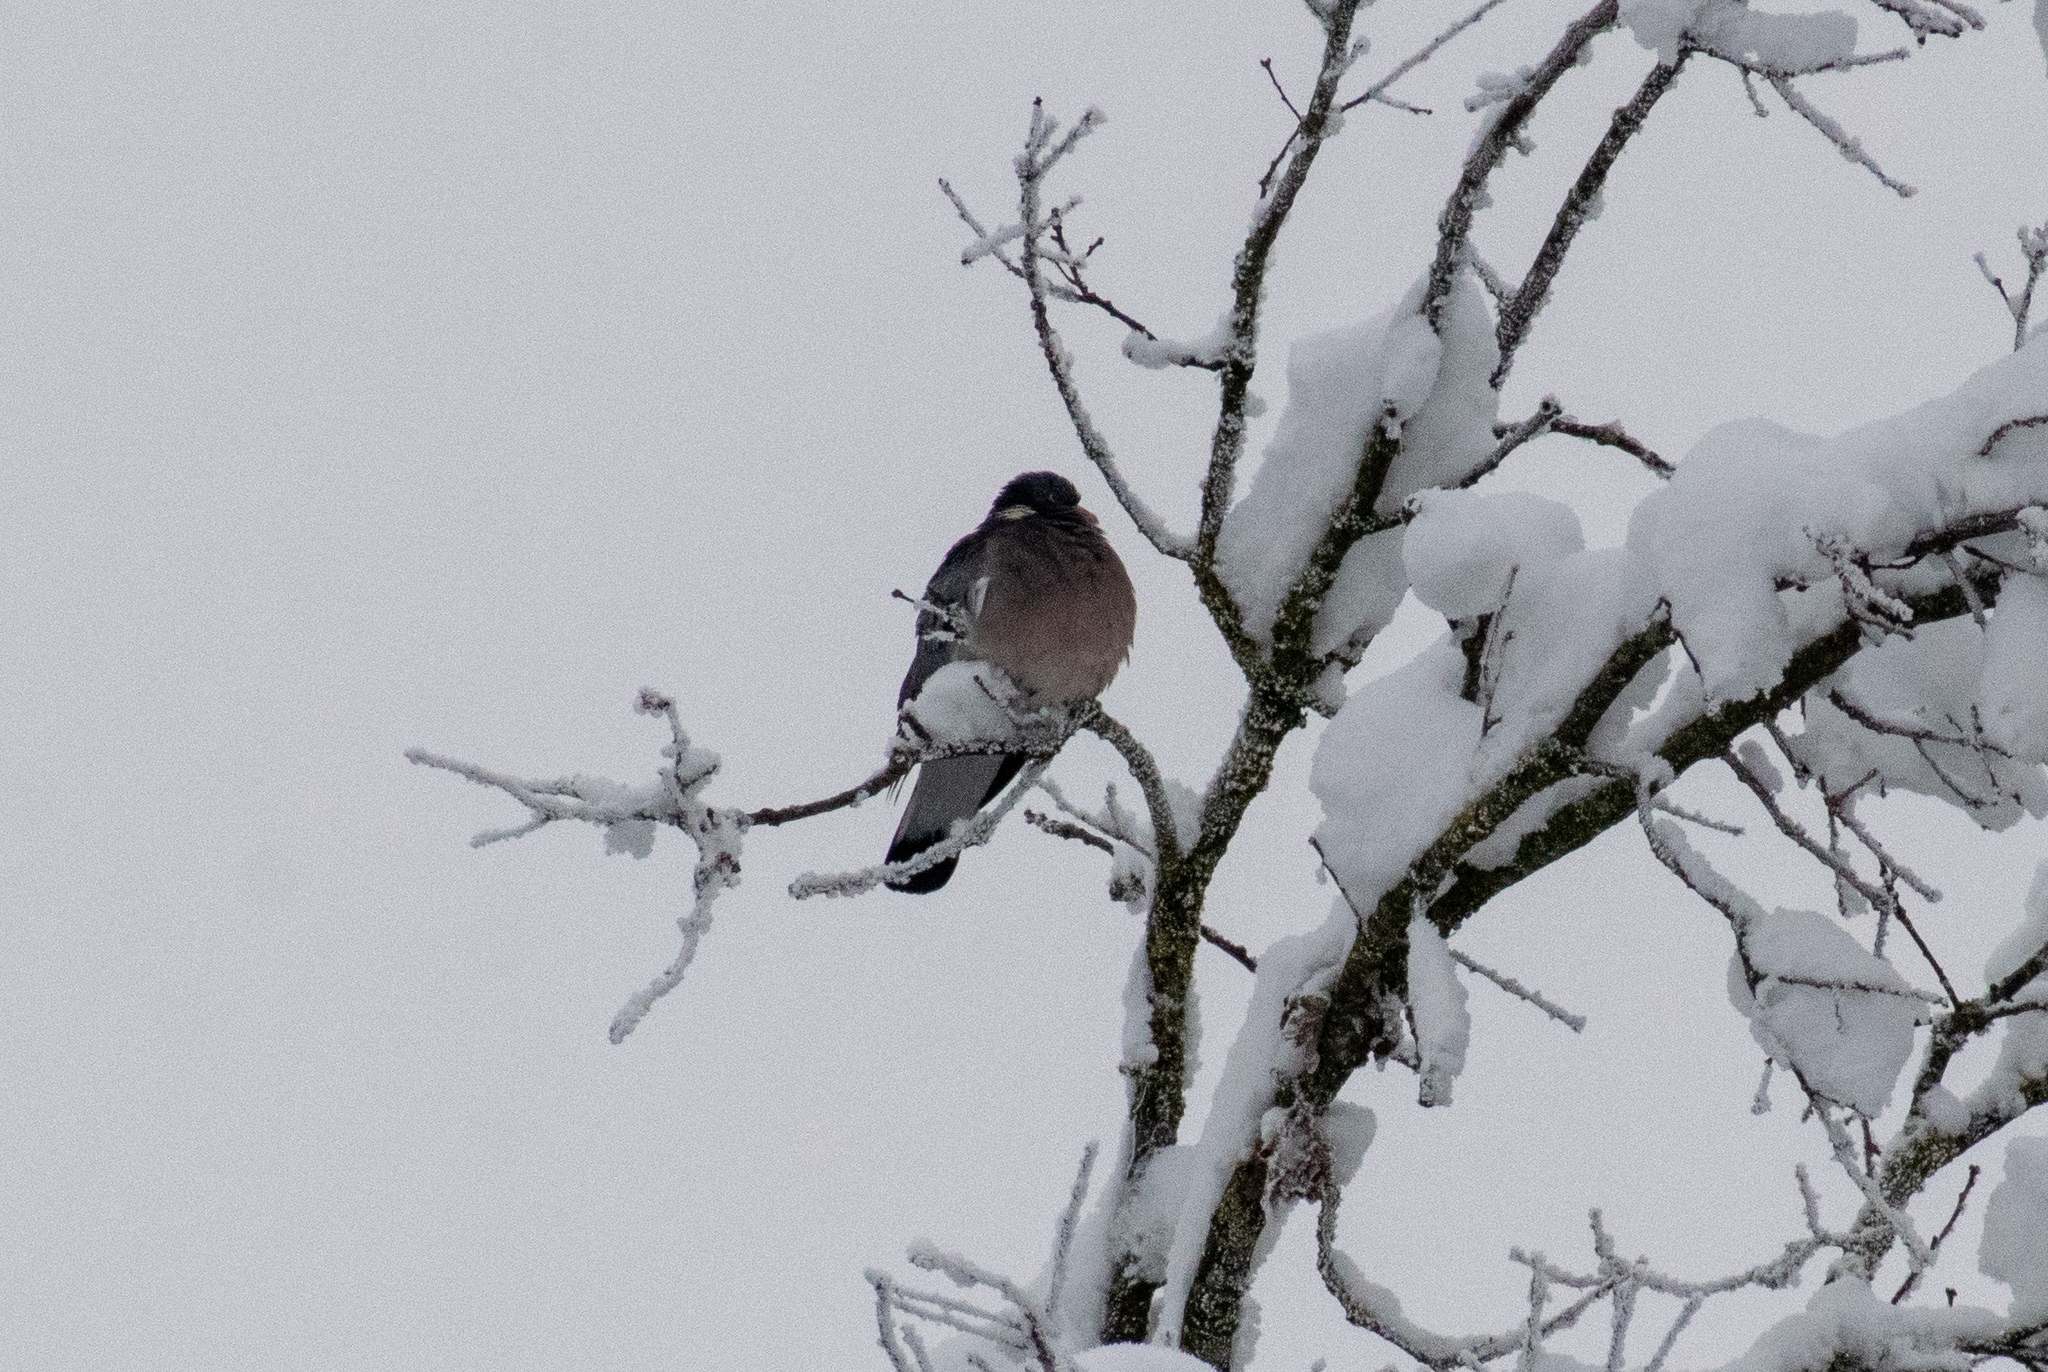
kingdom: Animalia
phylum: Chordata
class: Aves
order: Columbiformes
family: Columbidae
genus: Columba
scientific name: Columba palumbus
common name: Common wood pigeon
